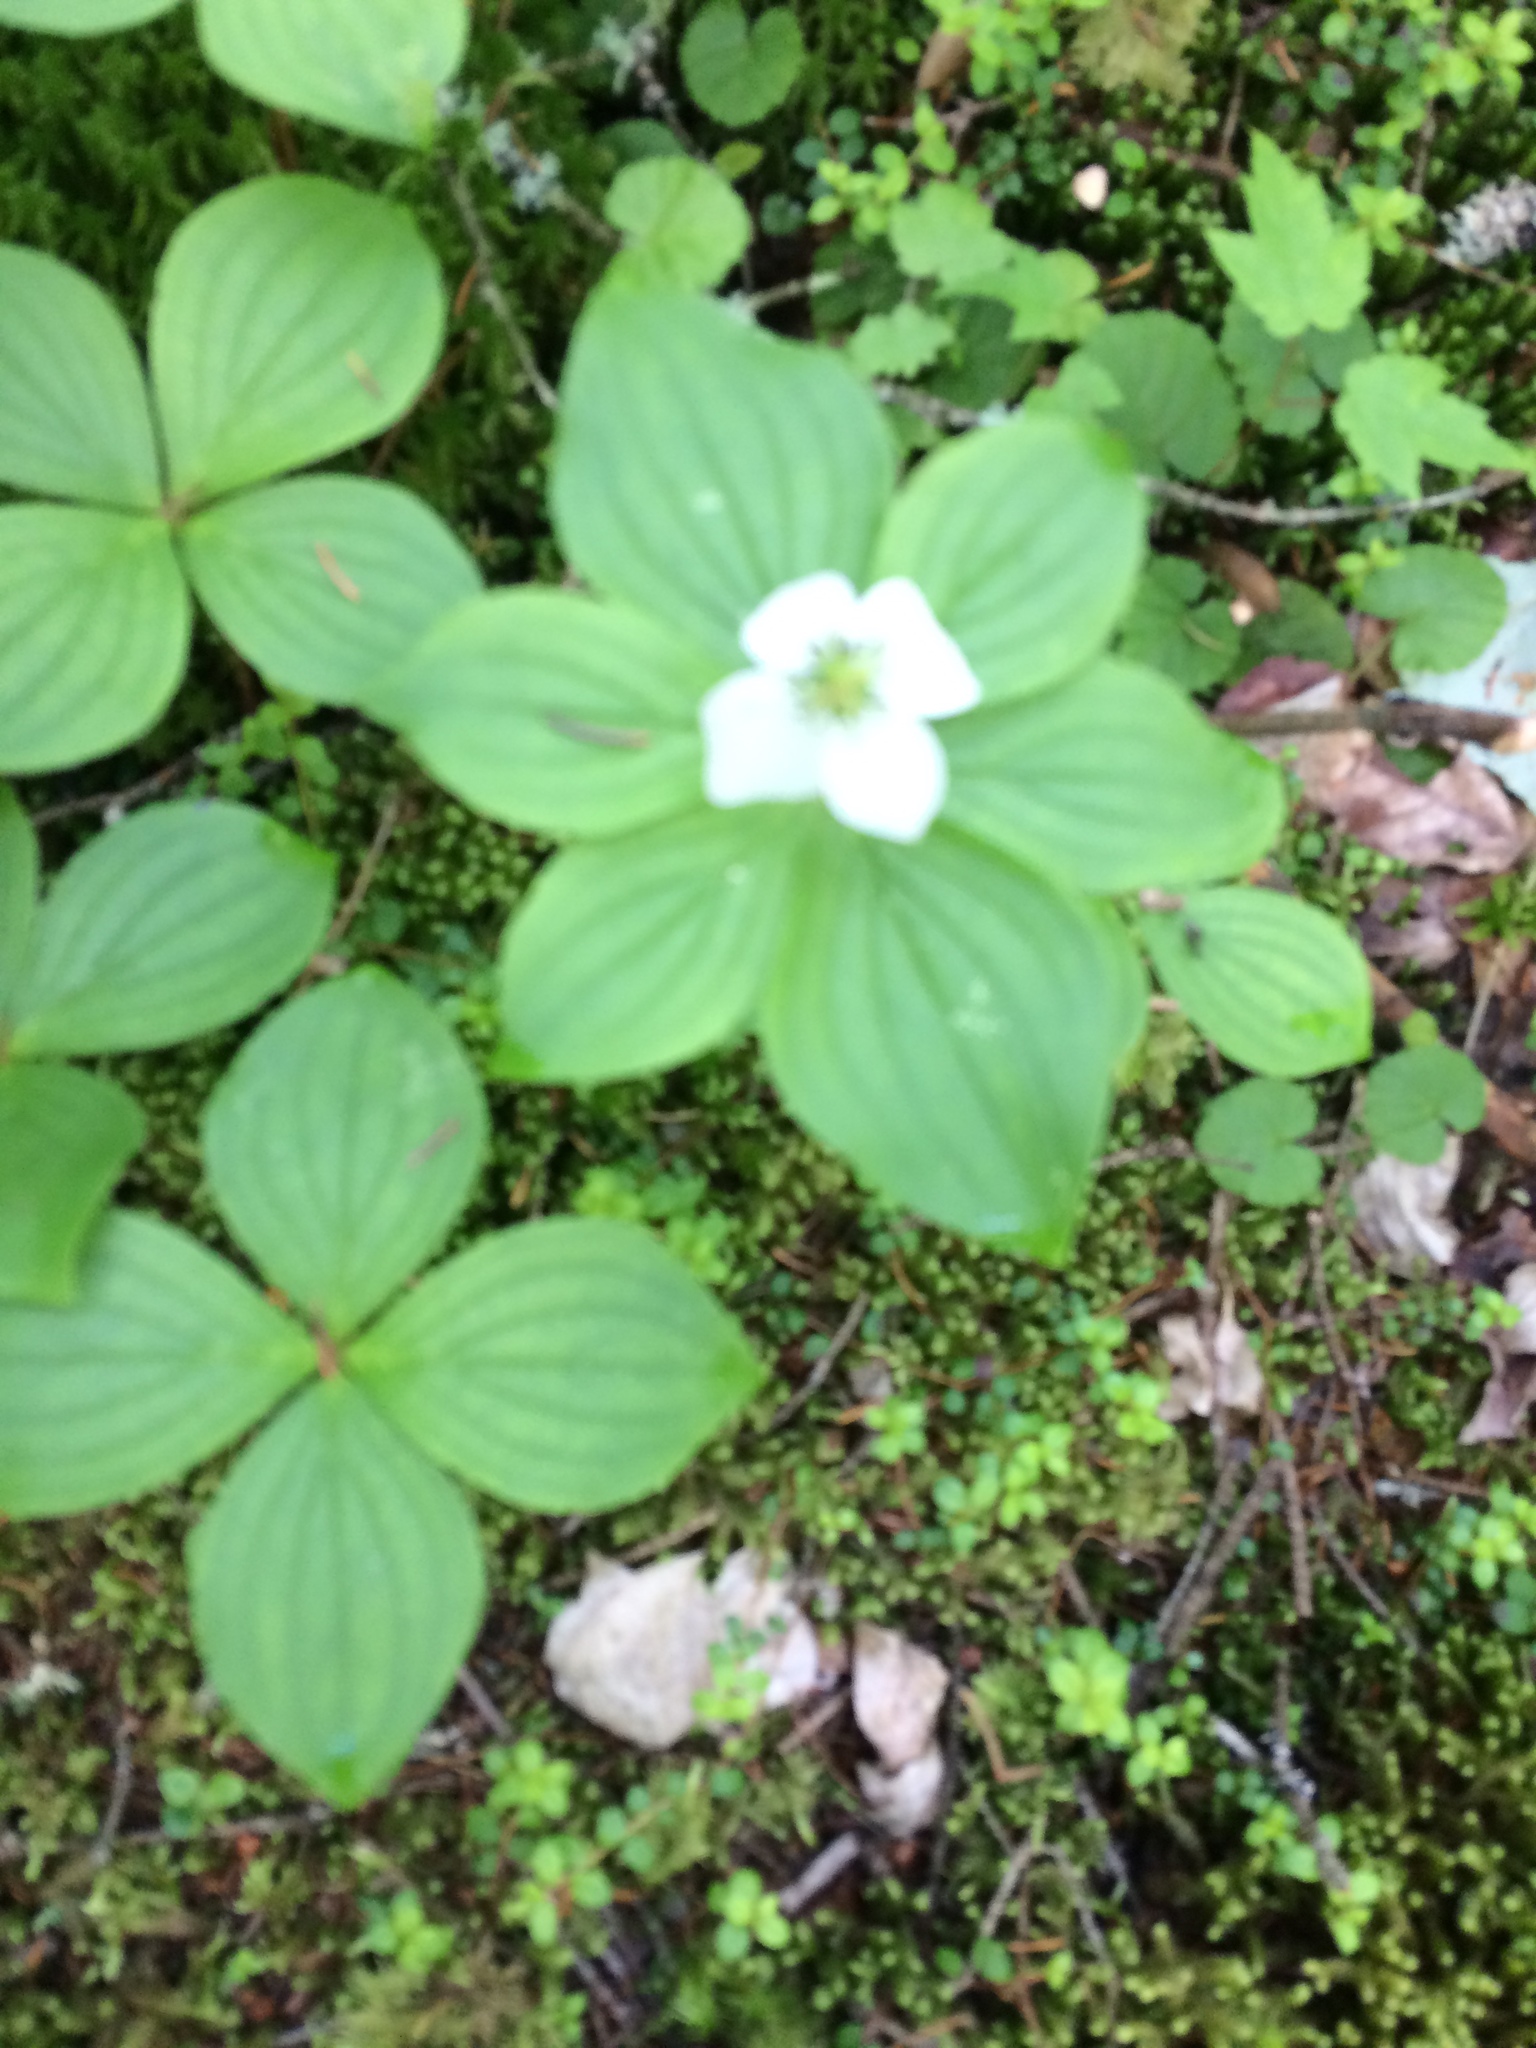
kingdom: Plantae
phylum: Tracheophyta
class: Magnoliopsida
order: Cornales
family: Cornaceae
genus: Cornus
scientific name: Cornus canadensis
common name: Creeping dogwood
